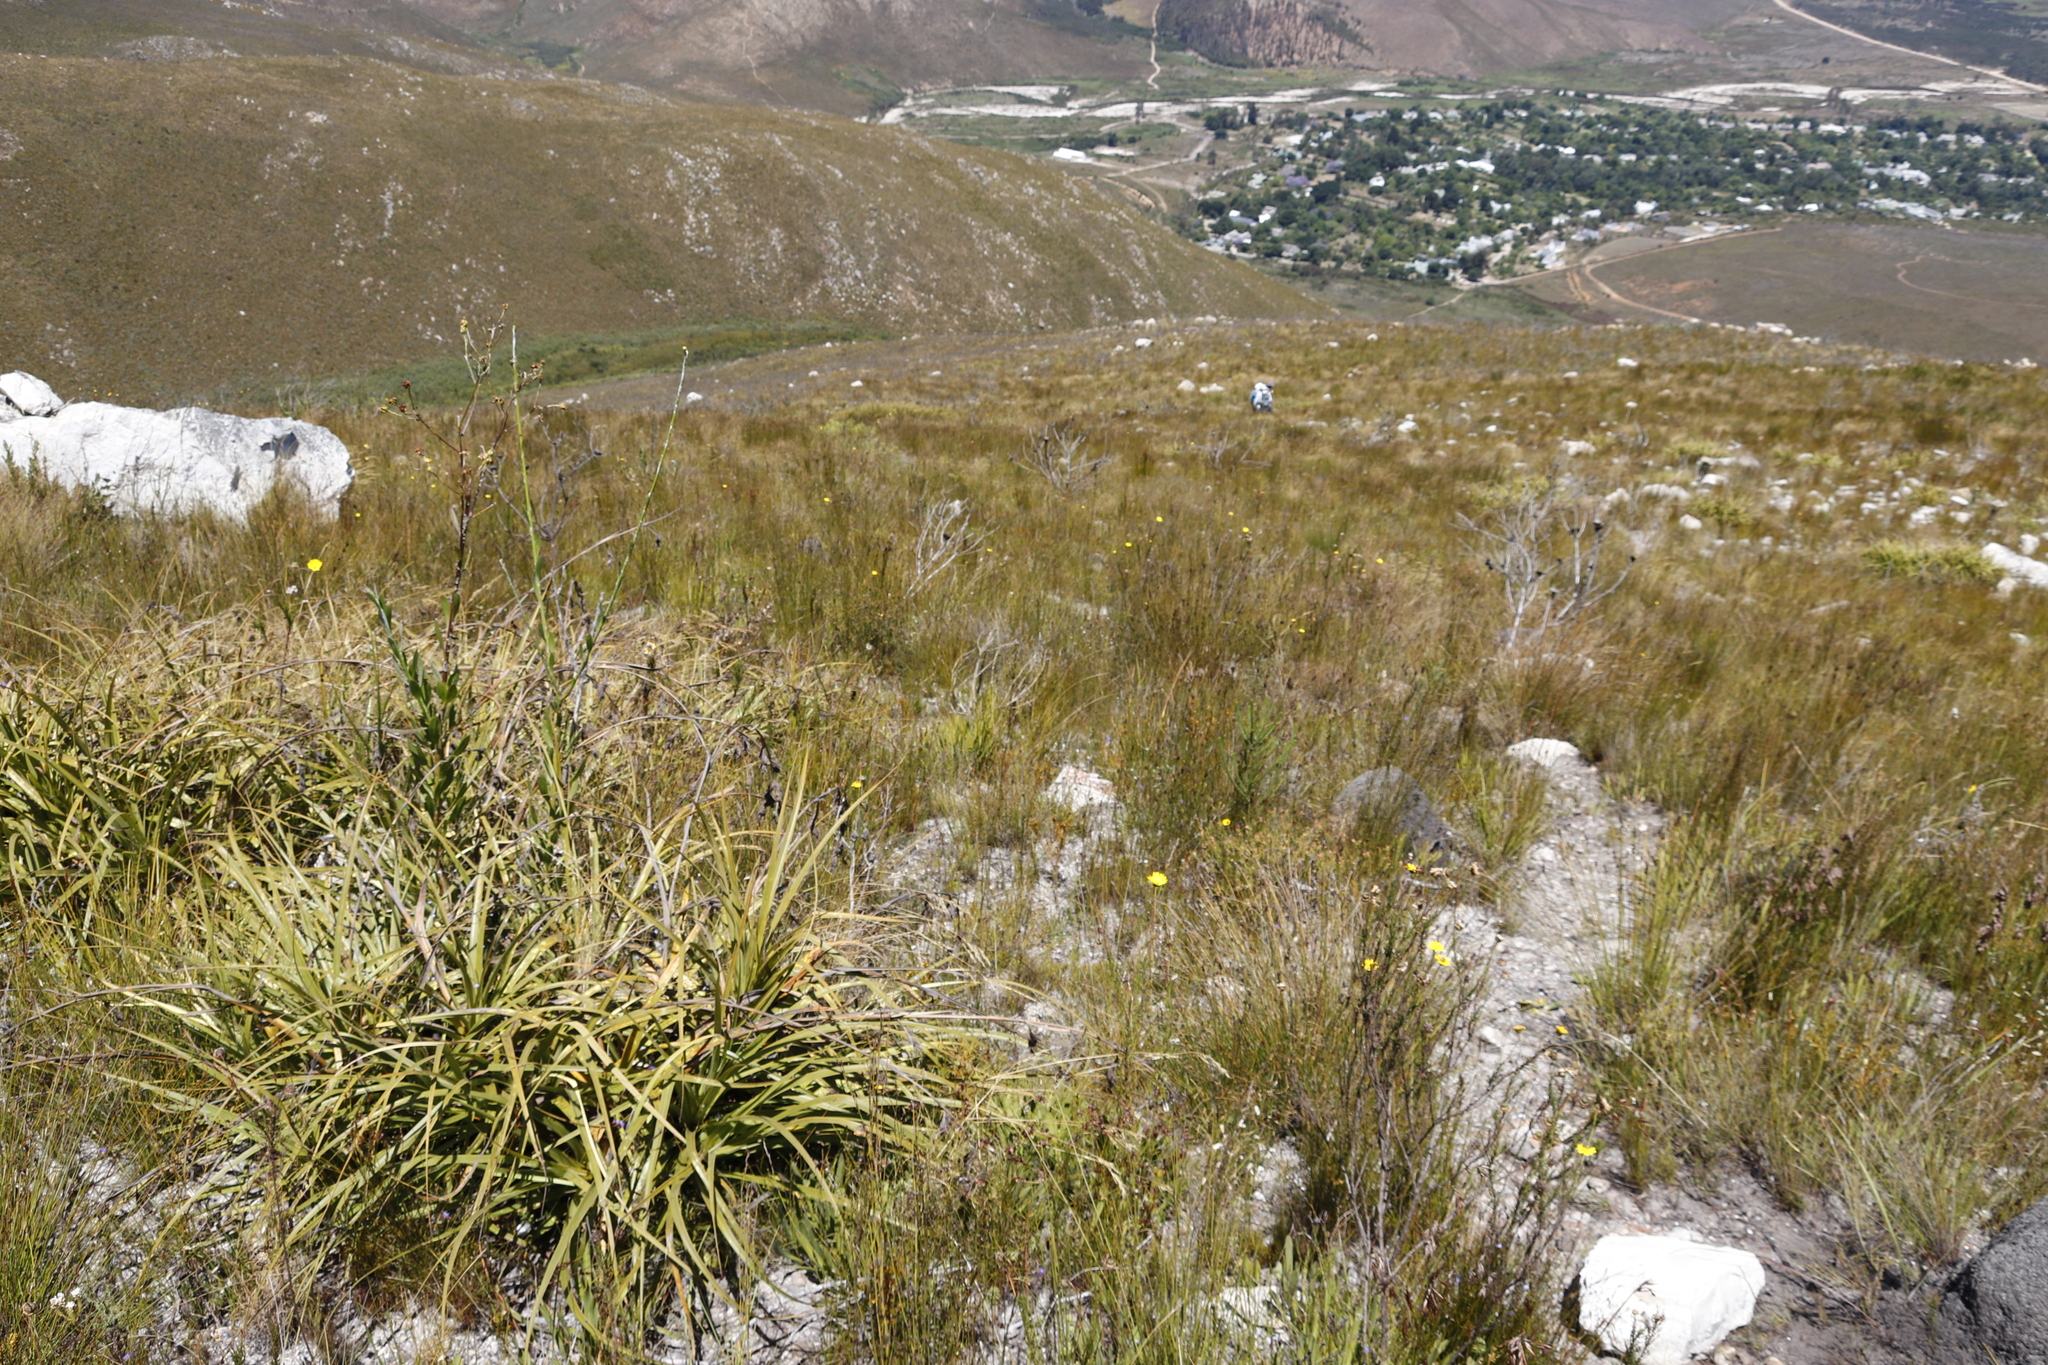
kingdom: Plantae
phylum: Tracheophyta
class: Liliopsida
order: Poales
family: Cyperaceae
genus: Tetraria
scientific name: Tetraria thermalis
